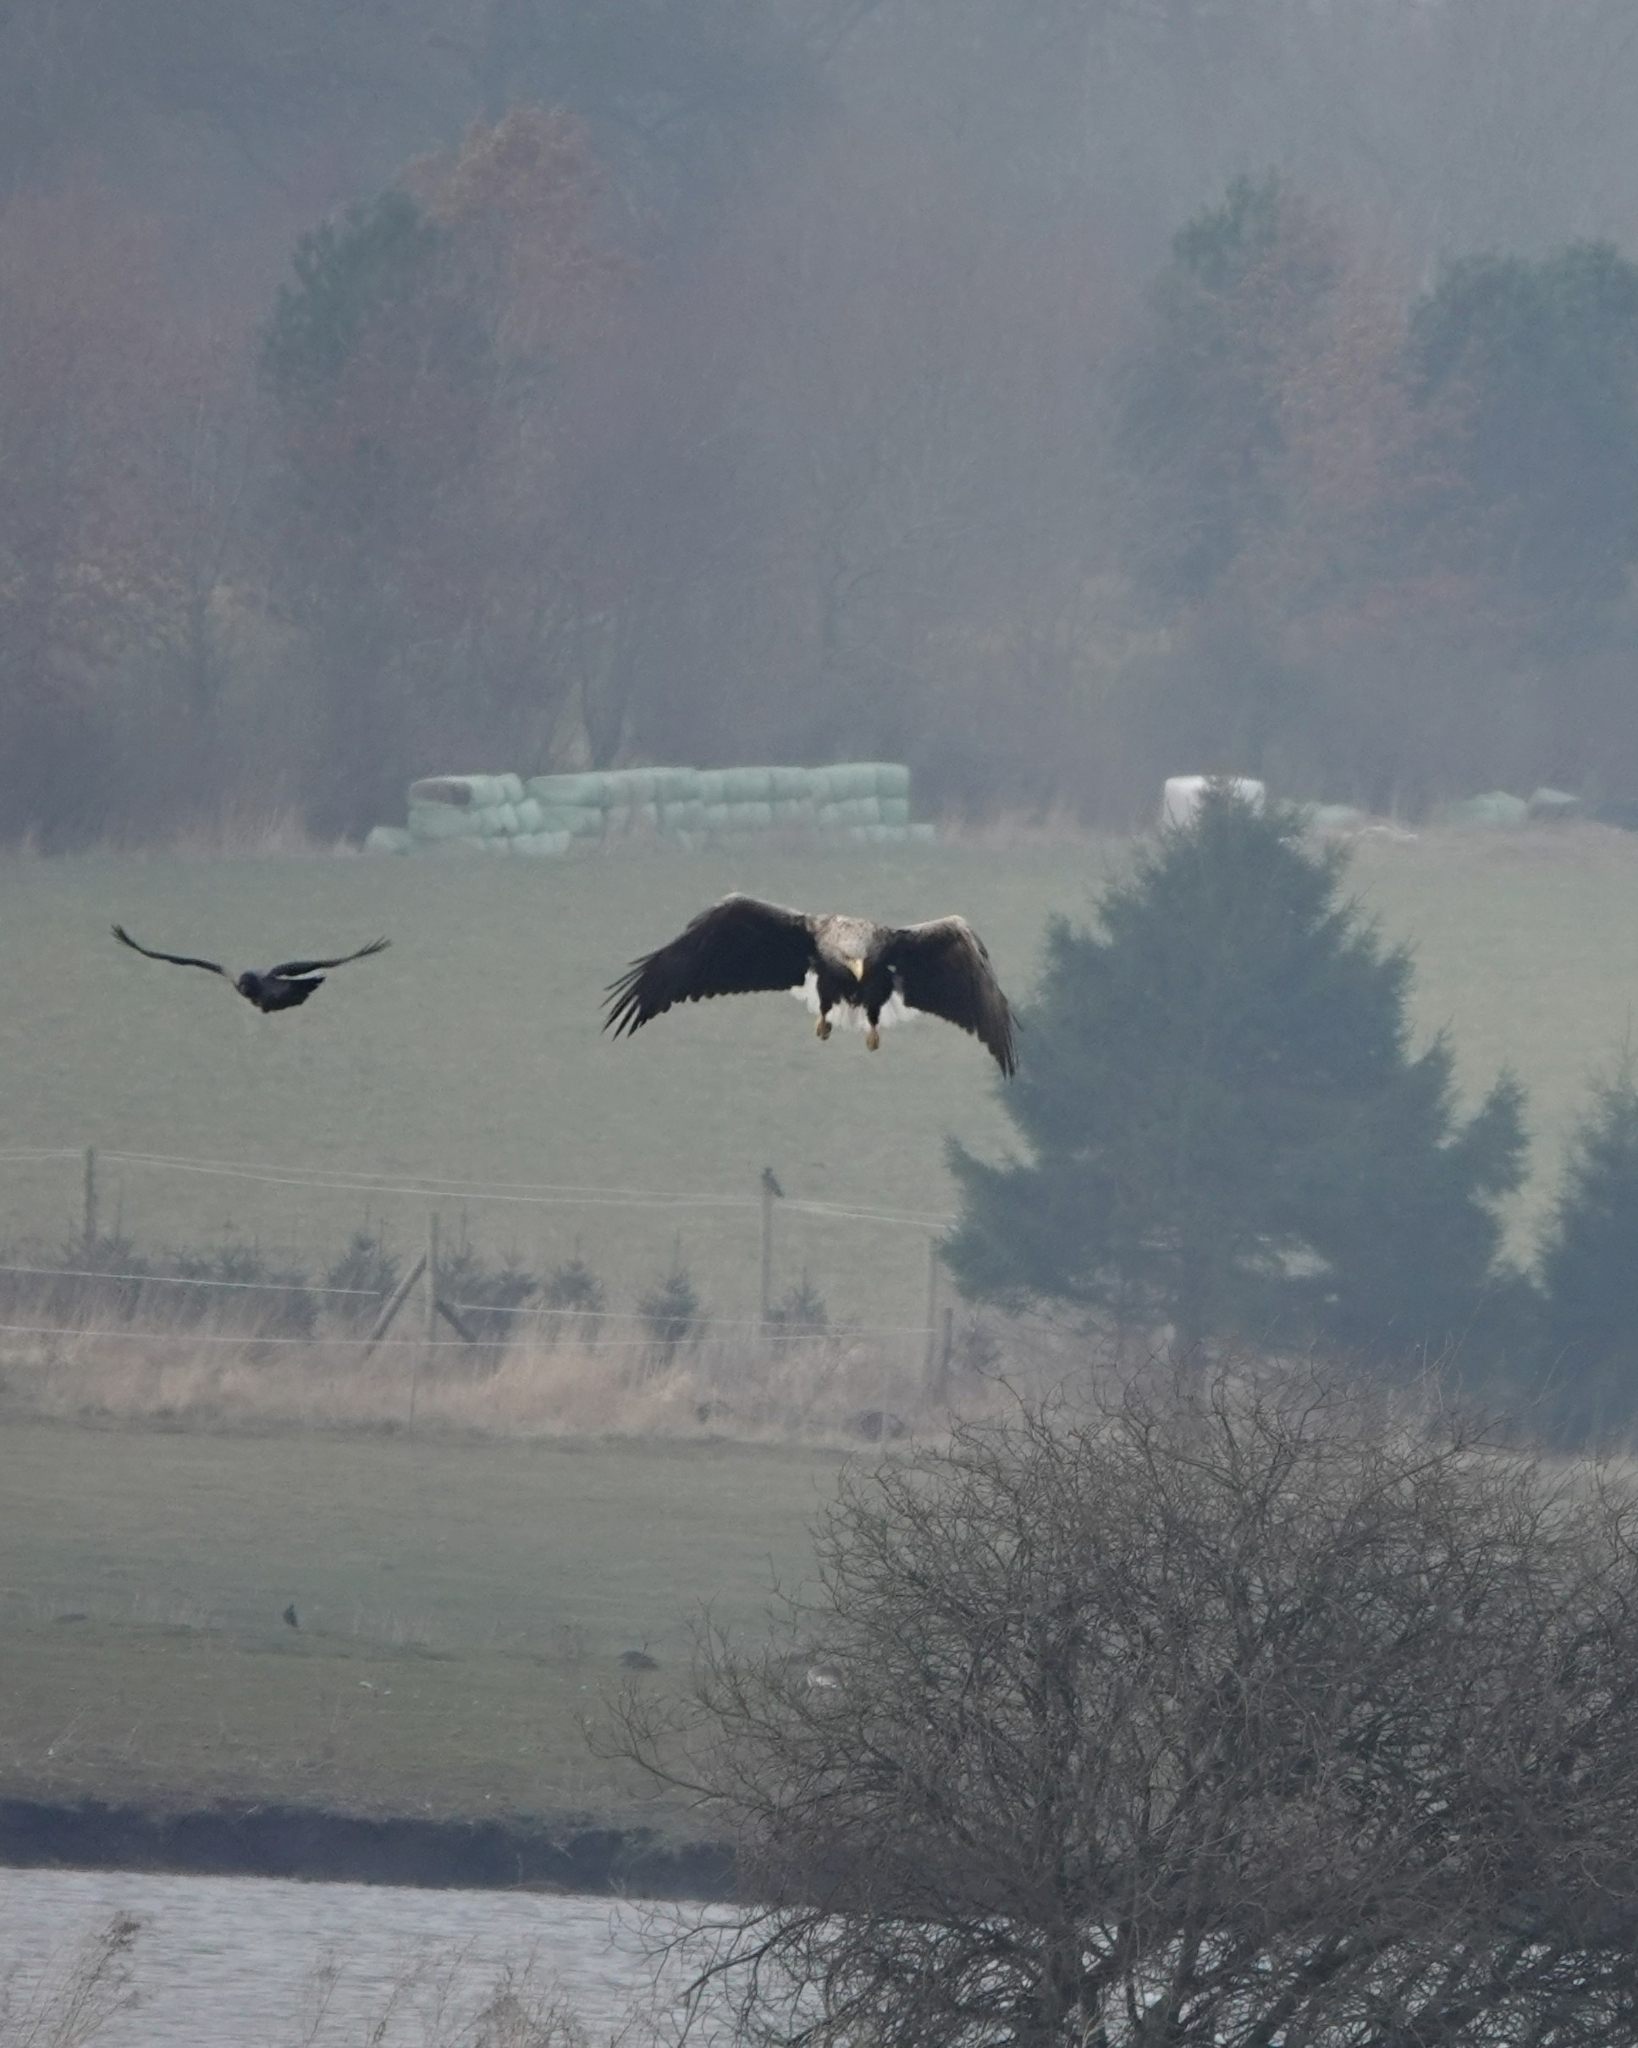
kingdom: Animalia
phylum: Chordata
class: Aves
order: Accipitriformes
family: Accipitridae
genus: Haliaeetus
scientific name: Haliaeetus albicilla
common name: White-tailed eagle
